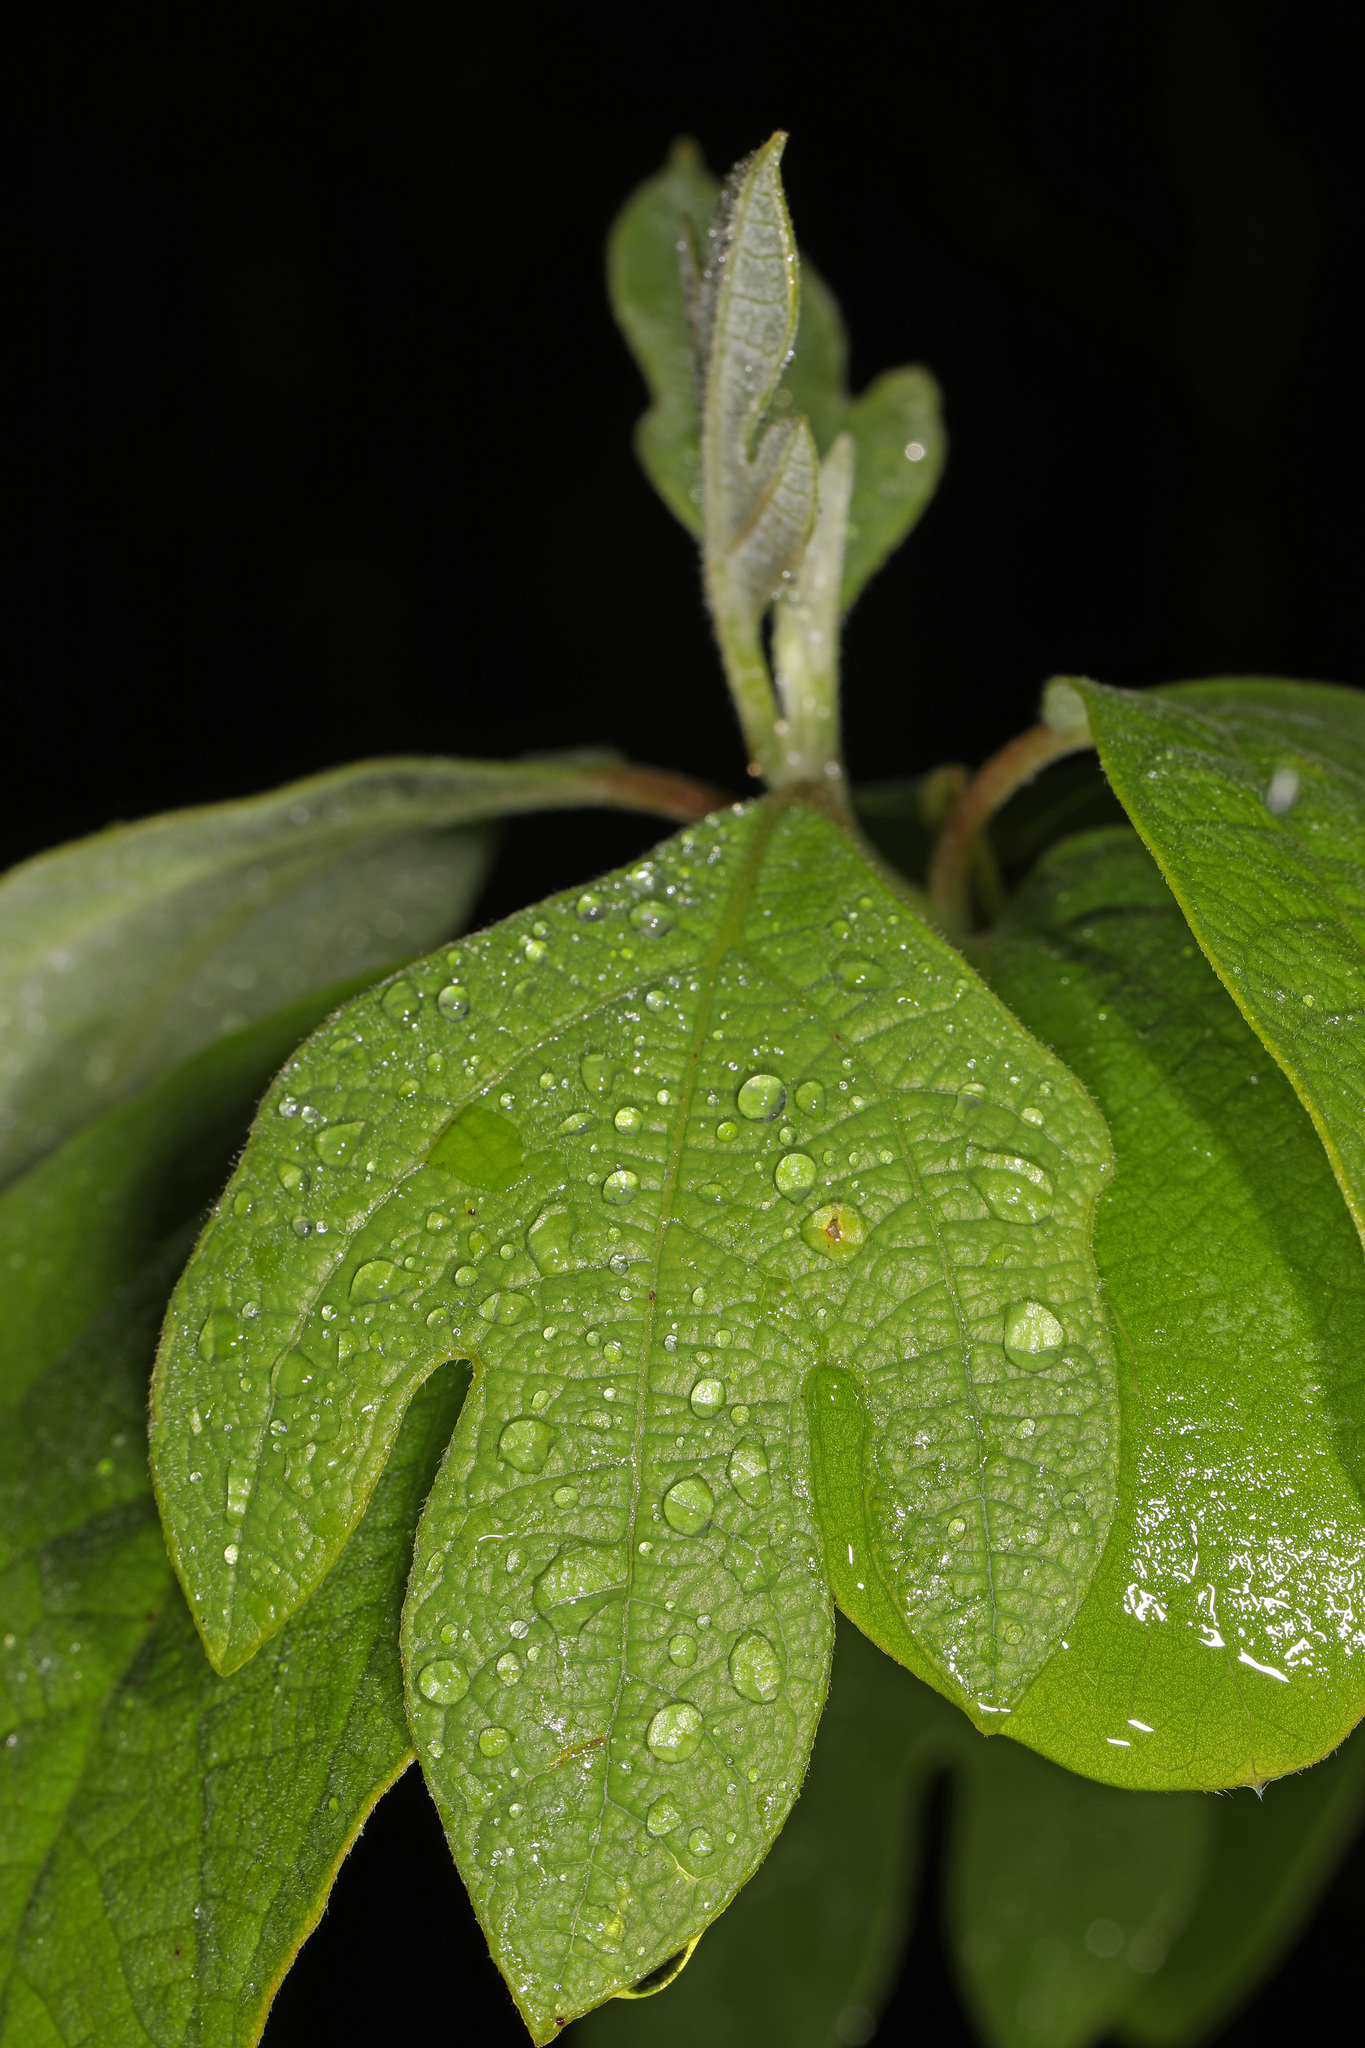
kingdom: Plantae
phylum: Tracheophyta
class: Magnoliopsida
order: Laurales
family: Lauraceae
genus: Sassafras
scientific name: Sassafras albidum
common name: Sassafras
